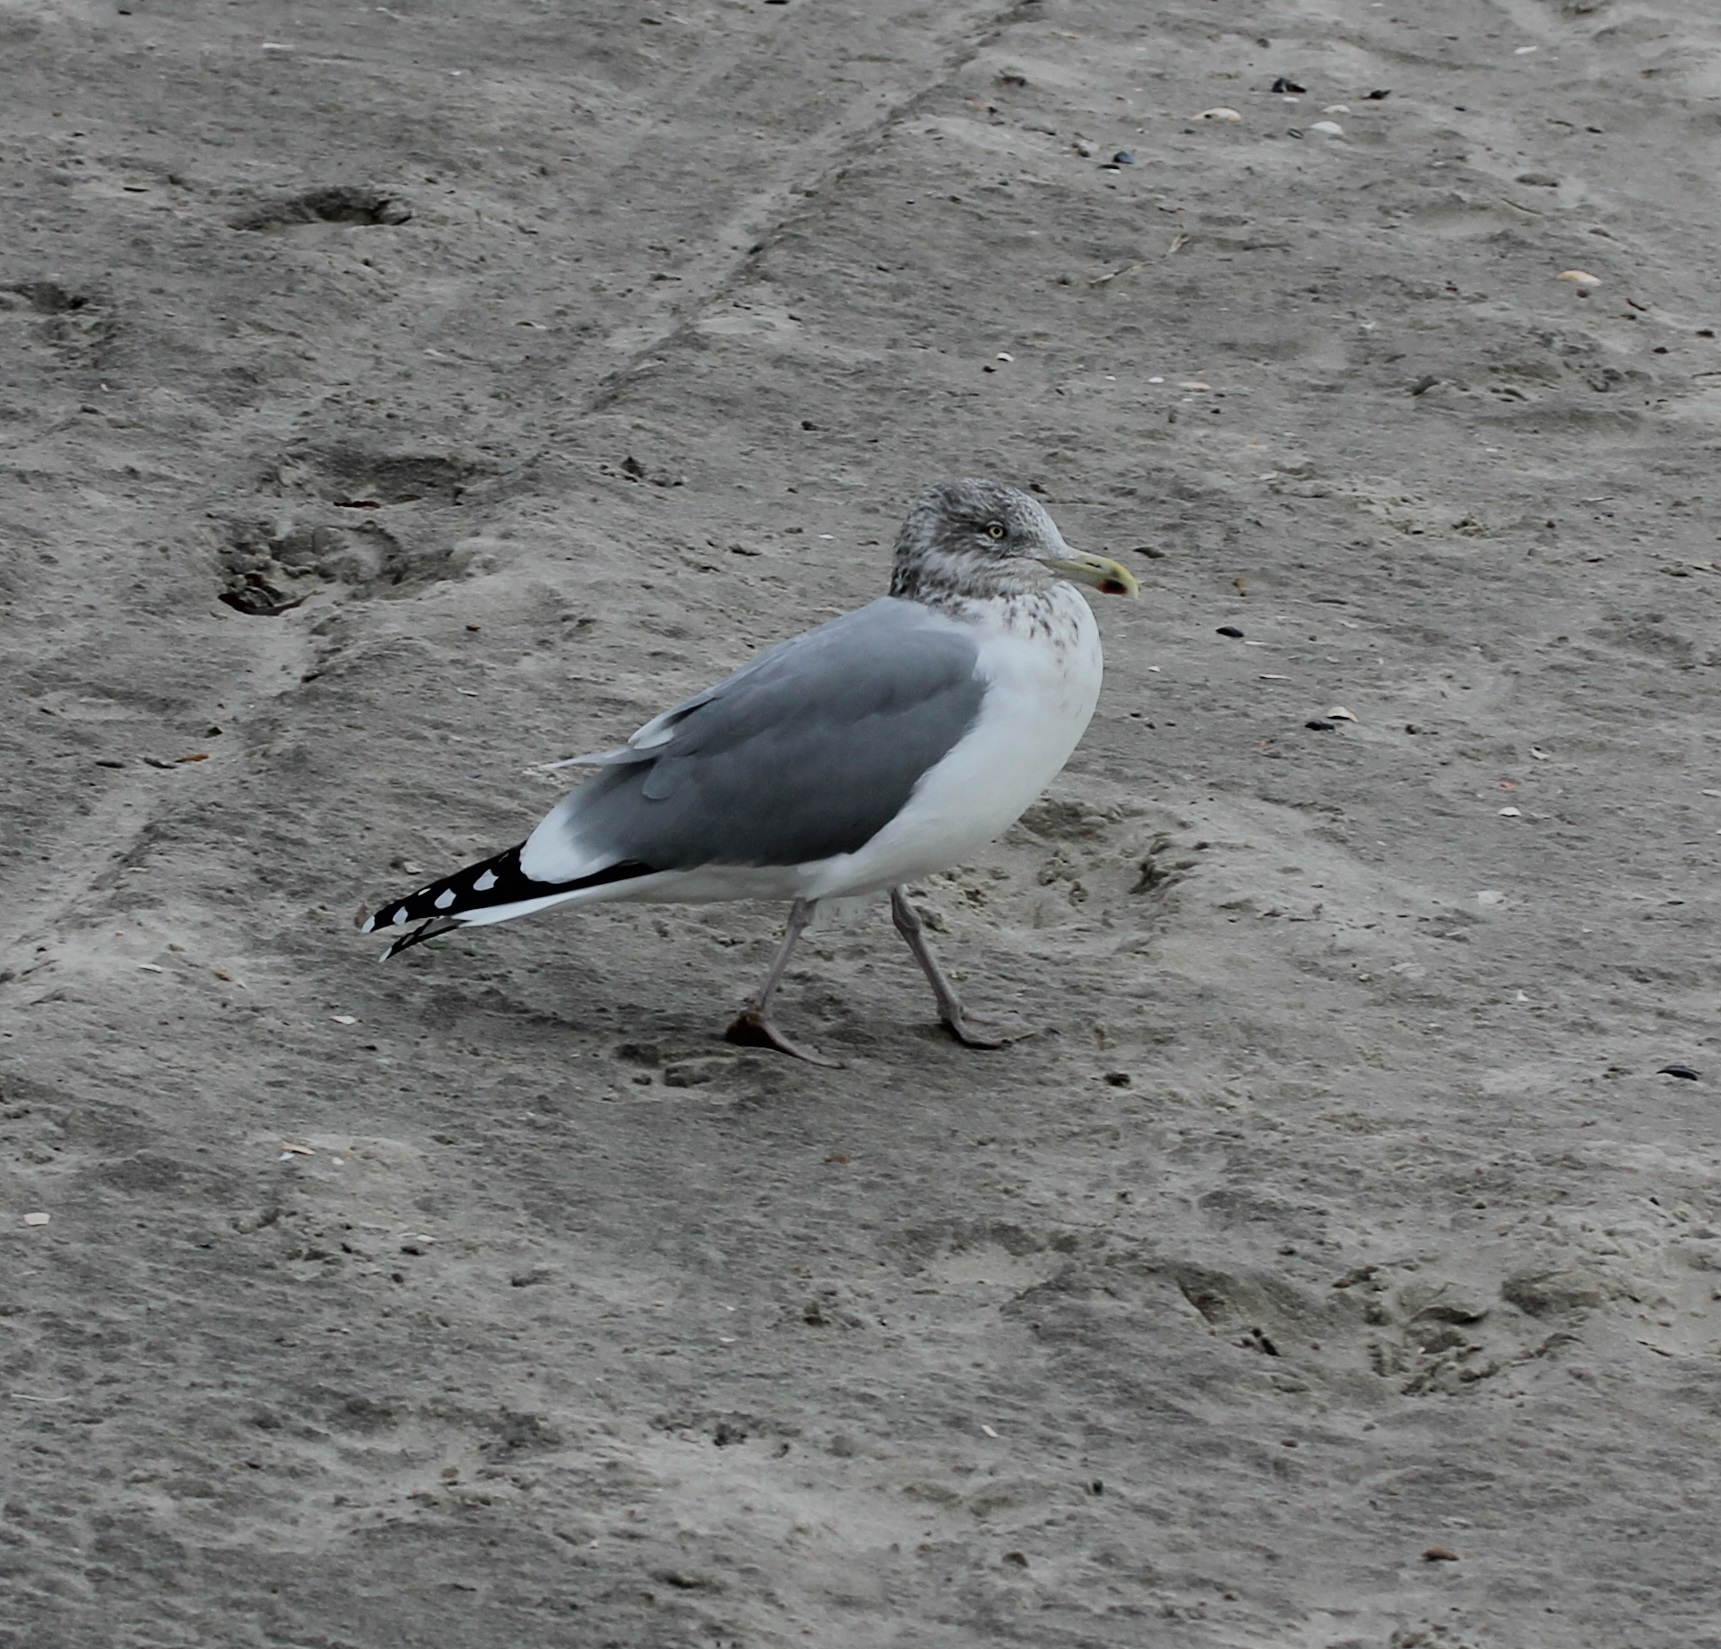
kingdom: Animalia
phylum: Chordata
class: Aves
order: Charadriiformes
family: Laridae
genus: Larus
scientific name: Larus argentatus
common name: Herring gull
